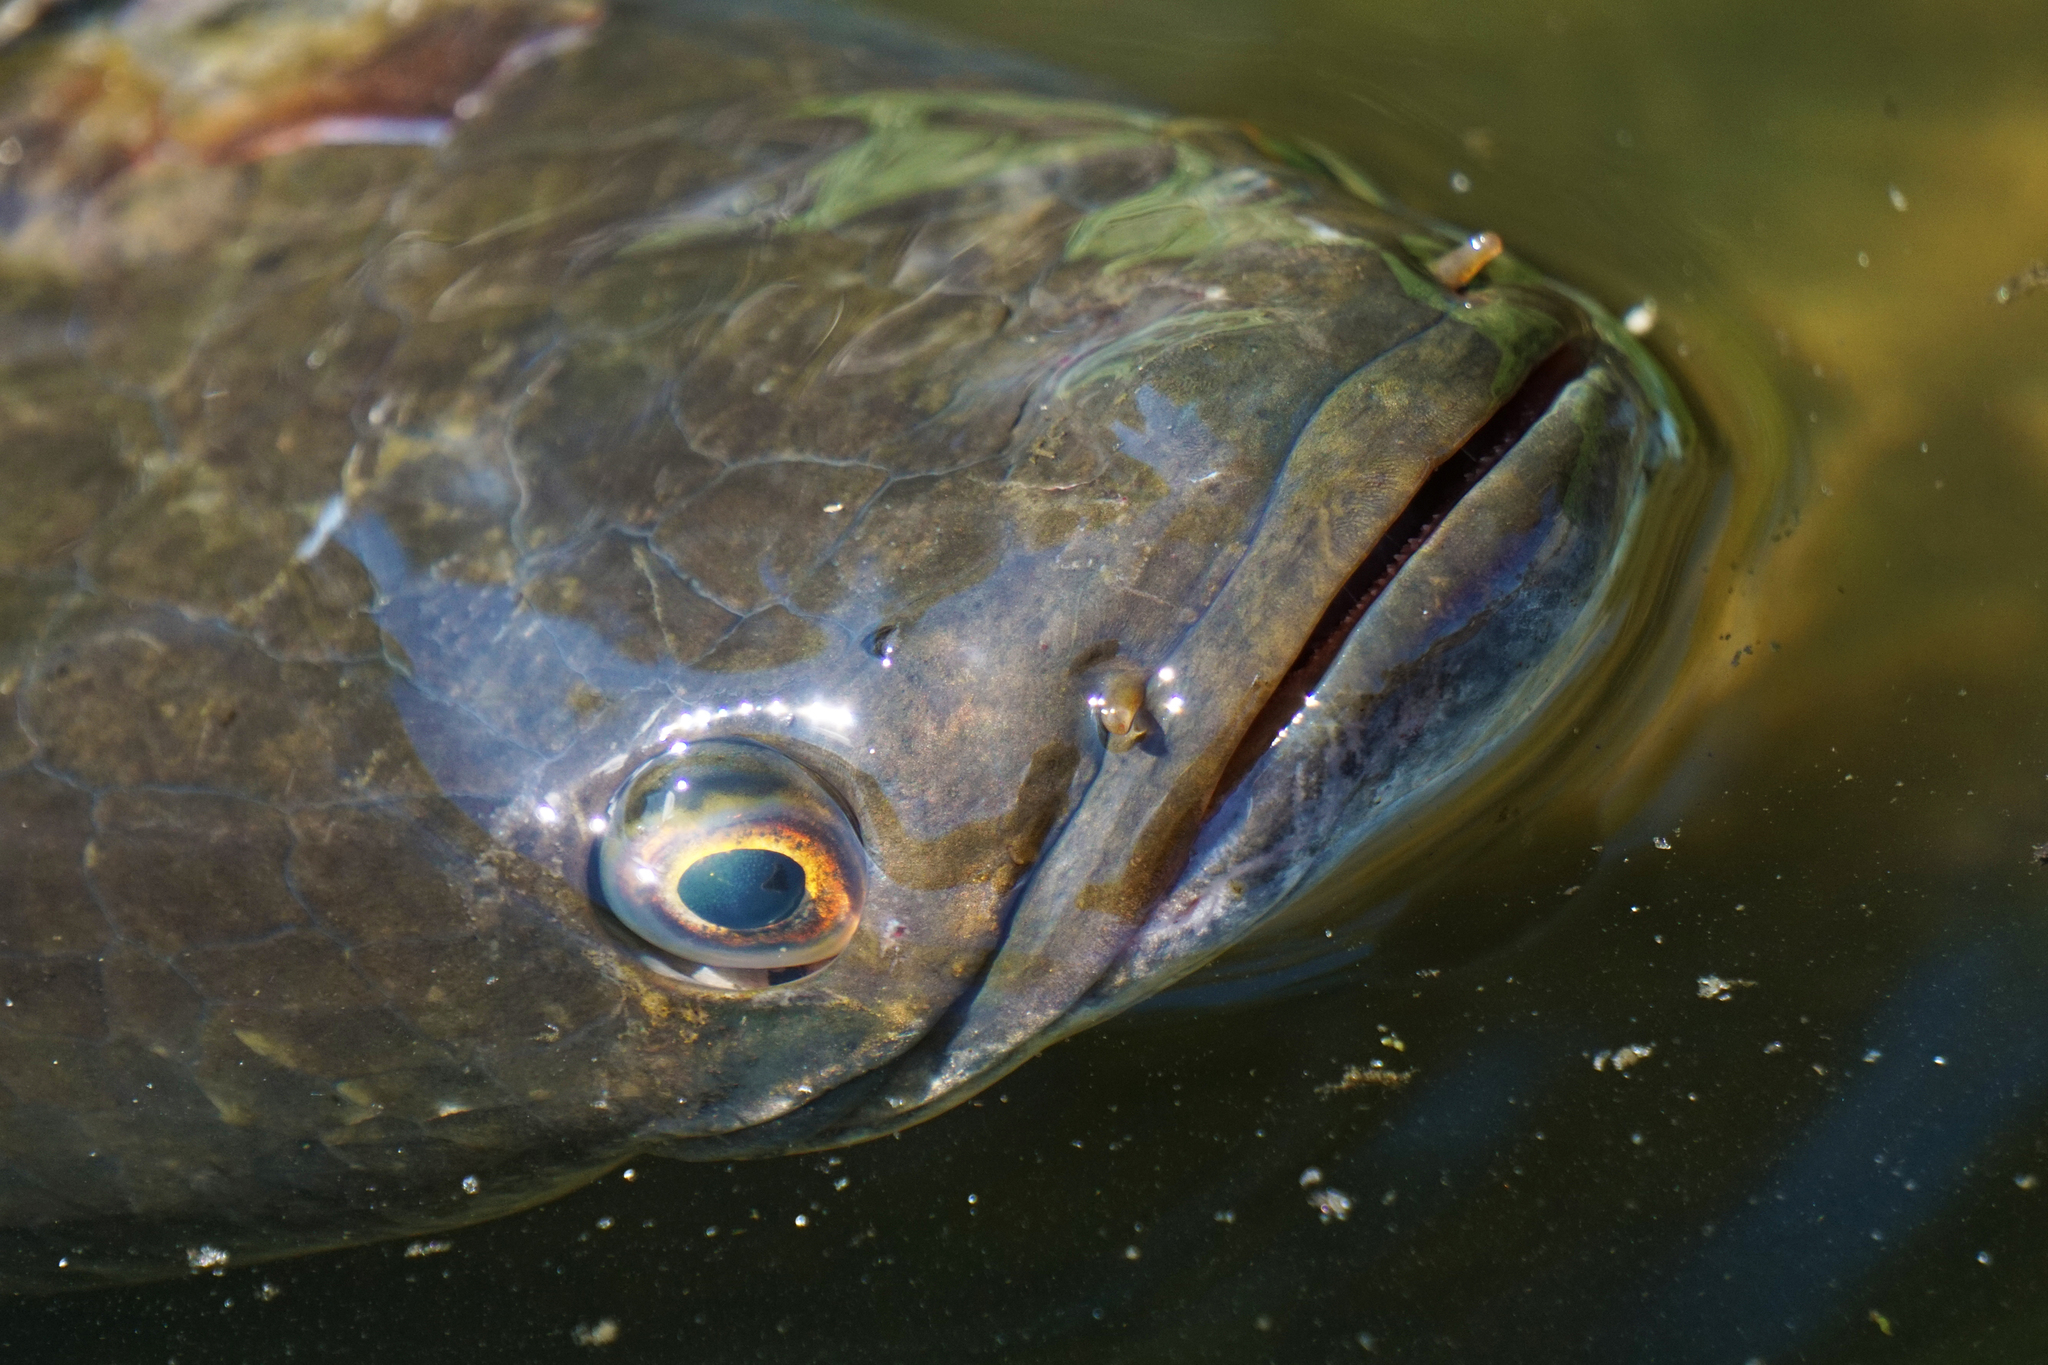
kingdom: Animalia
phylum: Chordata
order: Perciformes
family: Channidae
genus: Channa
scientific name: Channa marulius
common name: Giant snakehead
